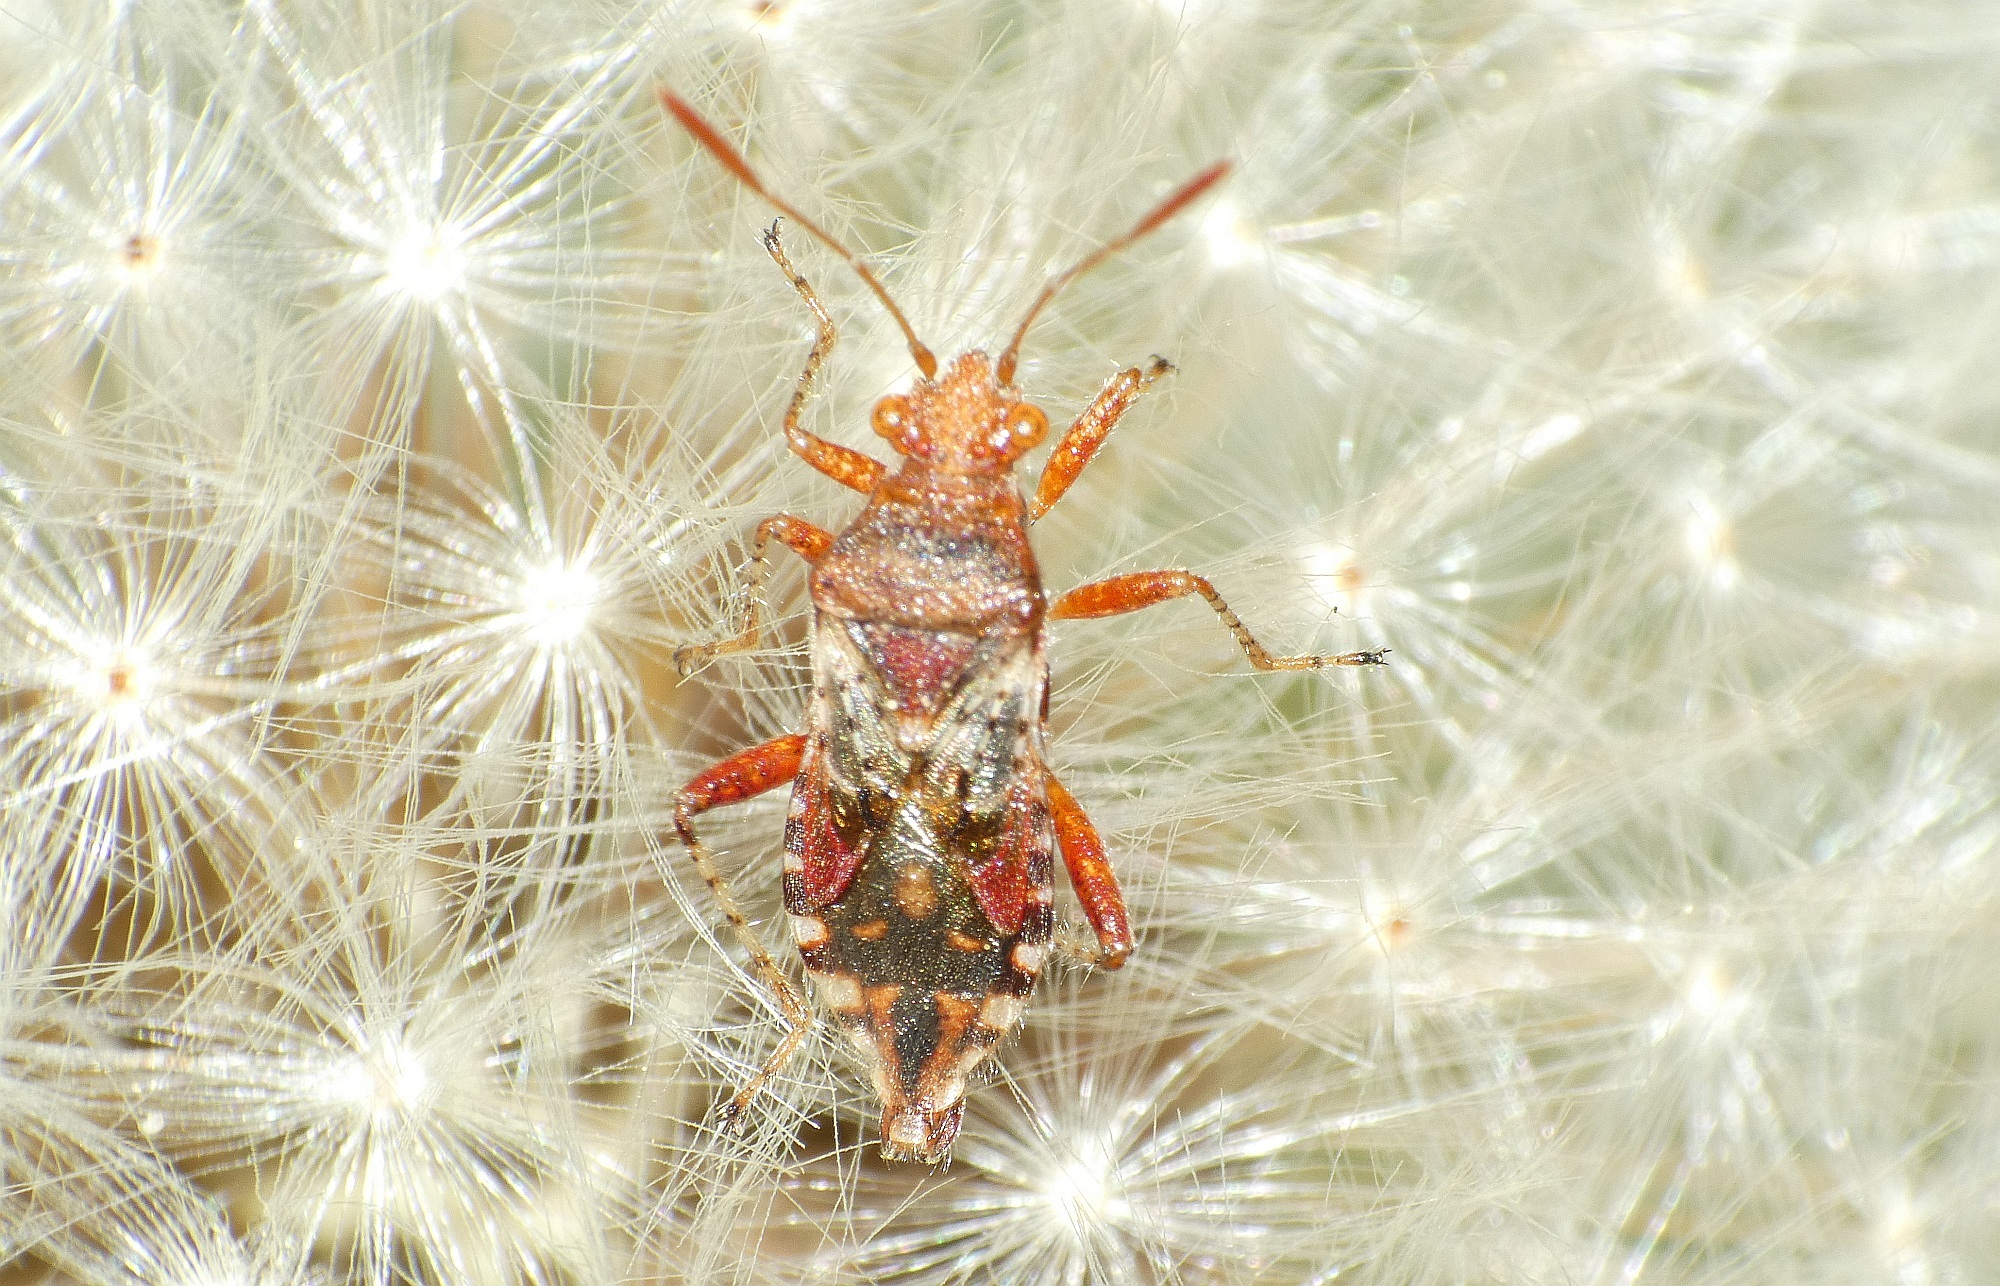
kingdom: Animalia
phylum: Arthropoda
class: Insecta
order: Hemiptera
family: Rhopalidae
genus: Rhopalus
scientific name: Rhopalus subrufus
